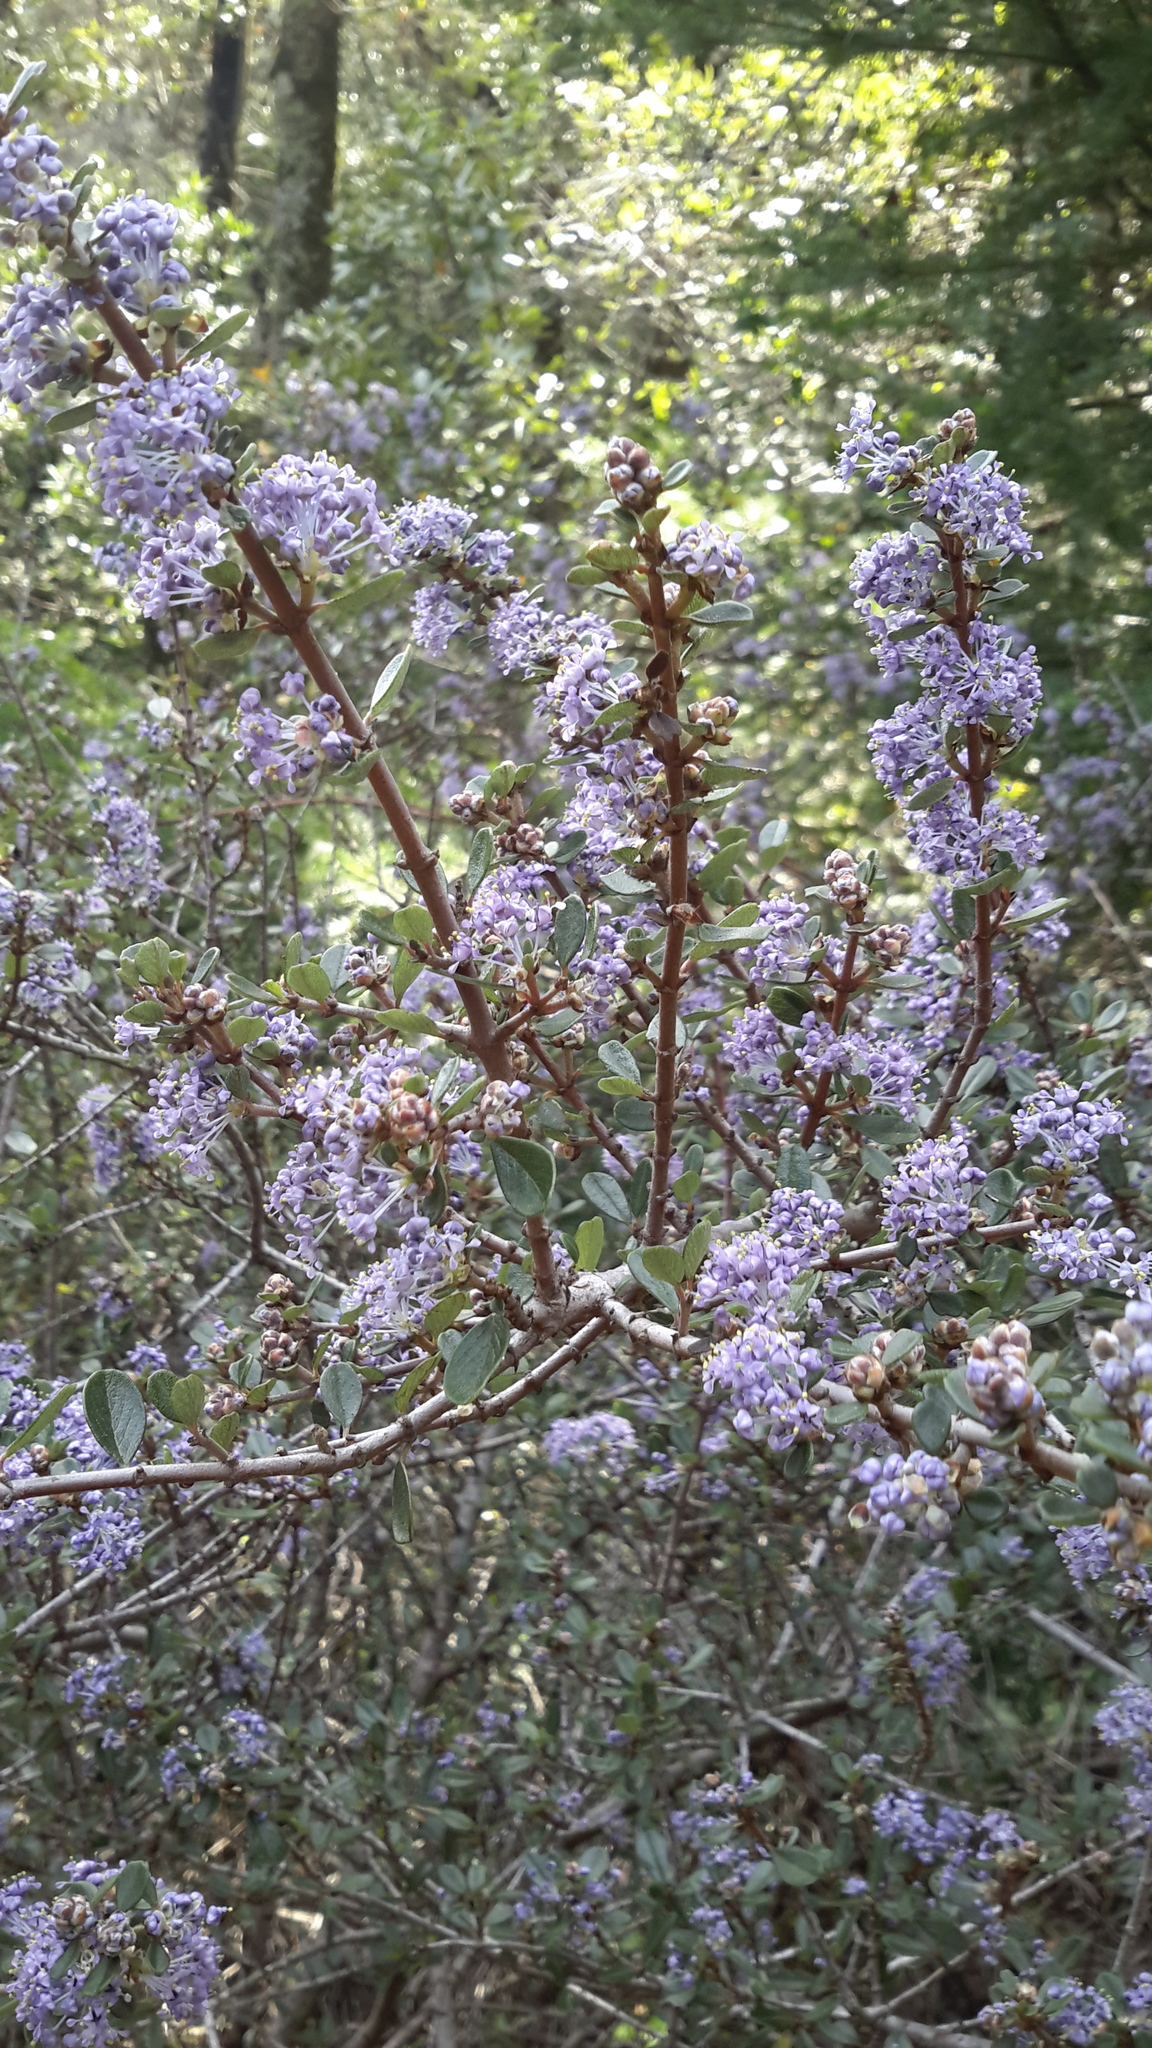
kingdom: Plantae
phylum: Tracheophyta
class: Magnoliopsida
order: Rosales
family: Rhamnaceae
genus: Ceanothus
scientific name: Ceanothus cuneatus
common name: Cuneate ceanothus
